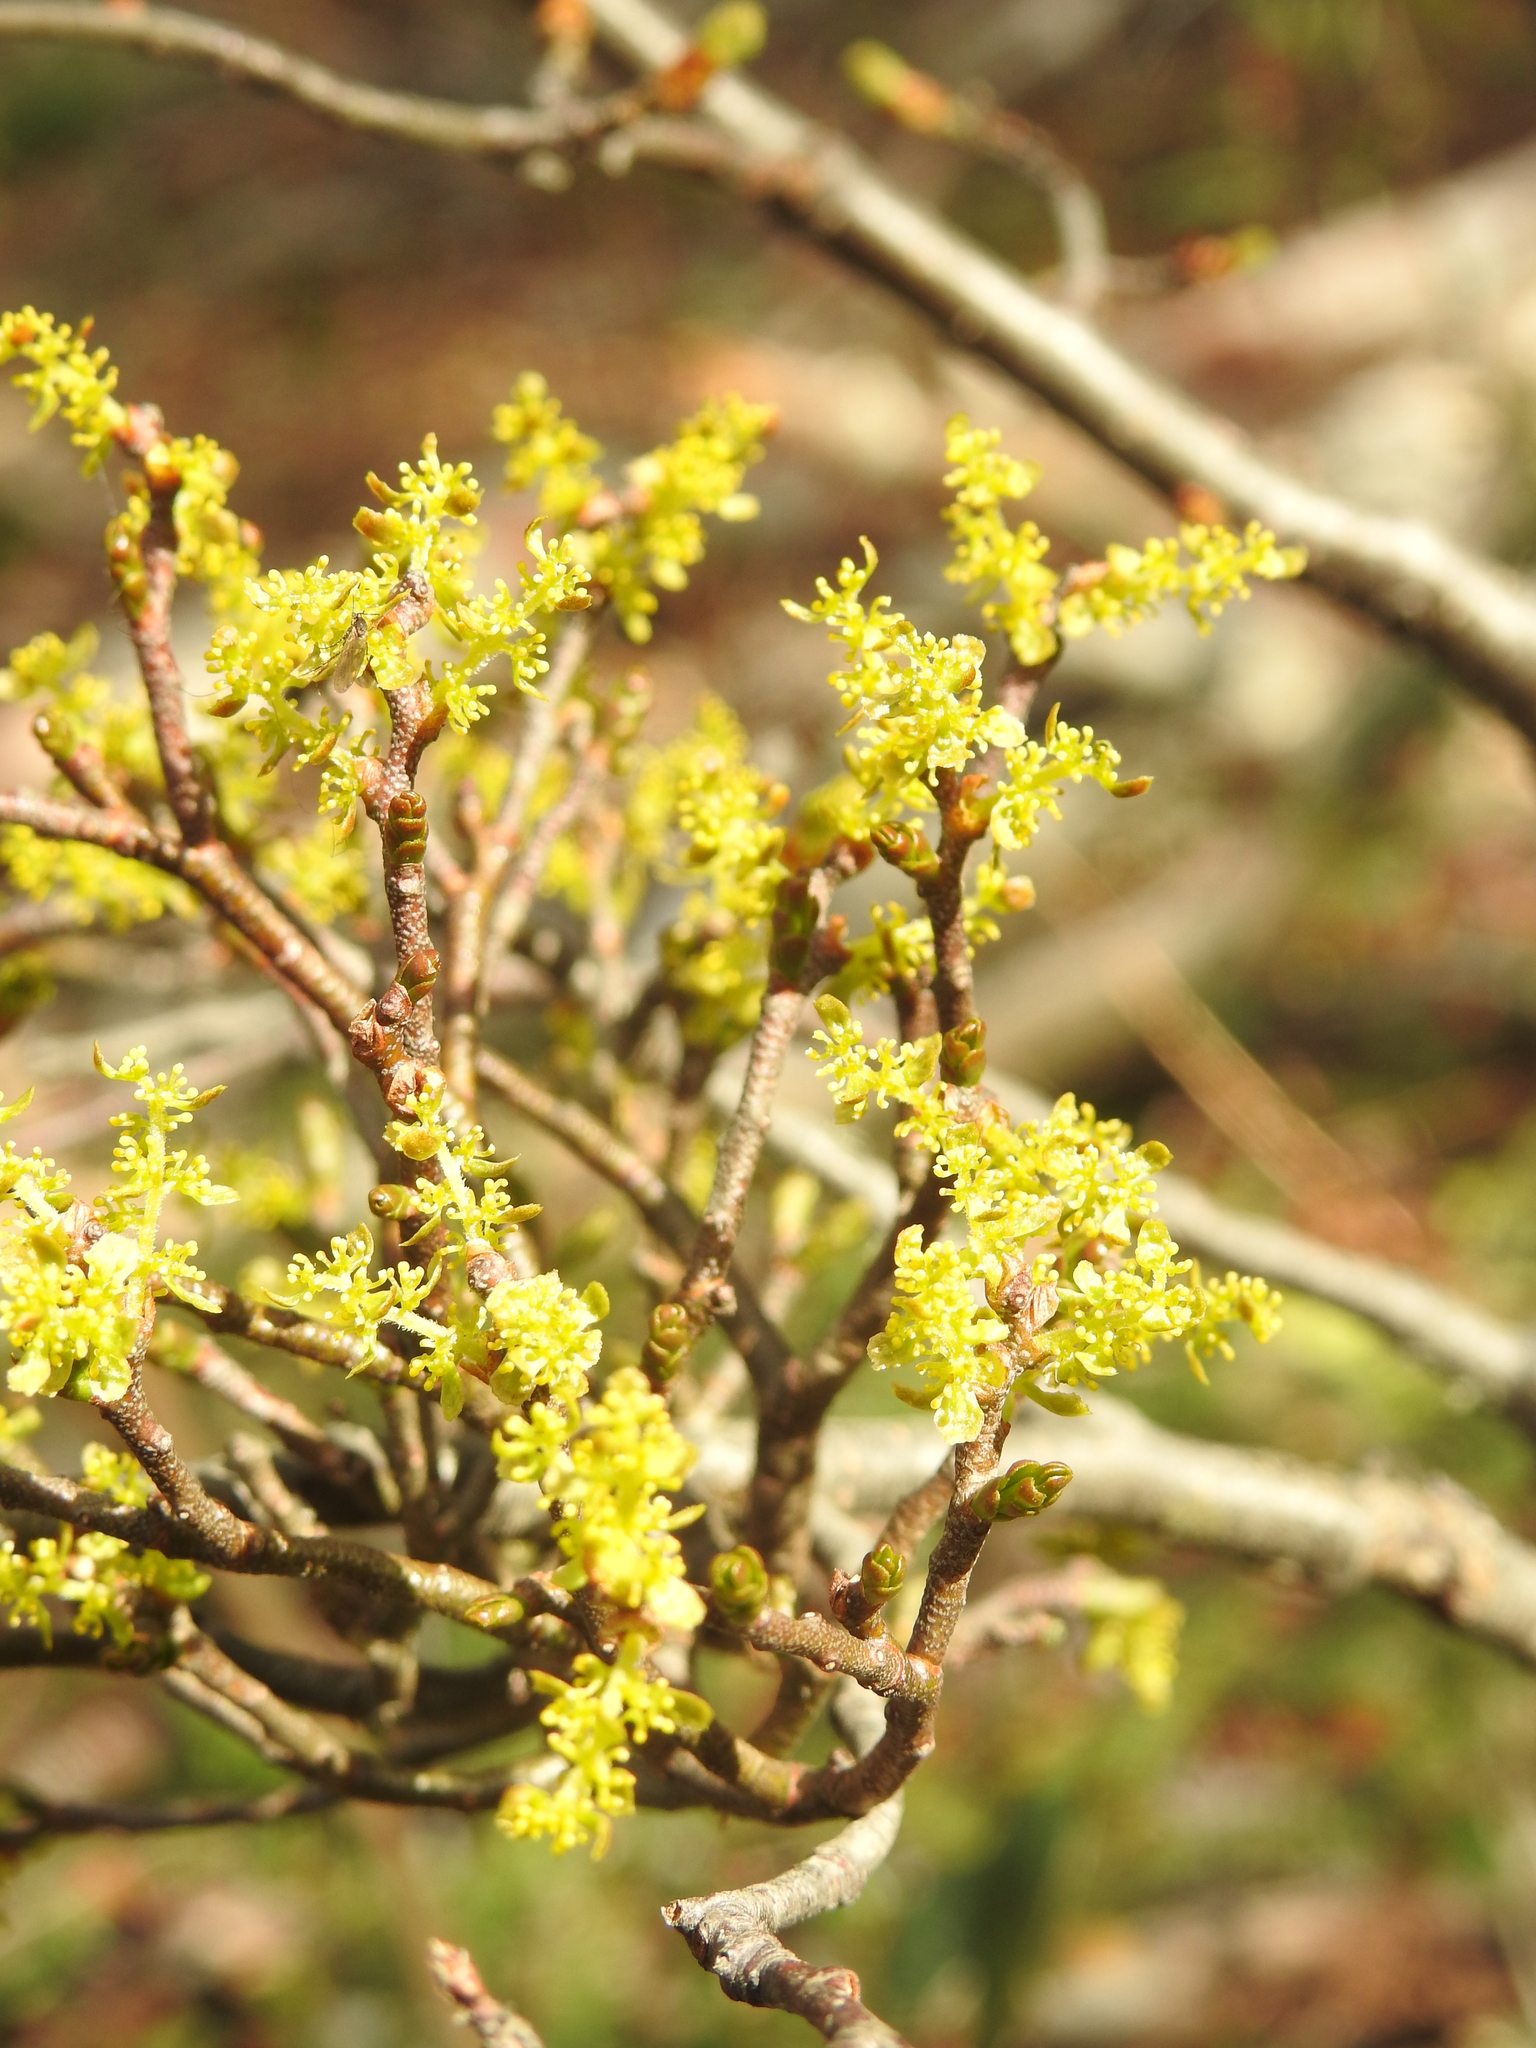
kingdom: Plantae
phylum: Tracheophyta
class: Magnoliopsida
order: Santalales
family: Misodendraceae
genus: Misodendrum
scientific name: Misodendrum quadriflorum
